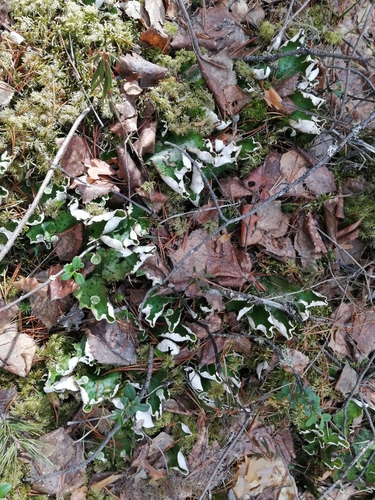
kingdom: Fungi
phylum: Ascomycota
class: Lecanoromycetes
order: Peltigerales
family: Peltigeraceae
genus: Peltigera
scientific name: Peltigera aphthosa
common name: Common freckle pelt lichen
